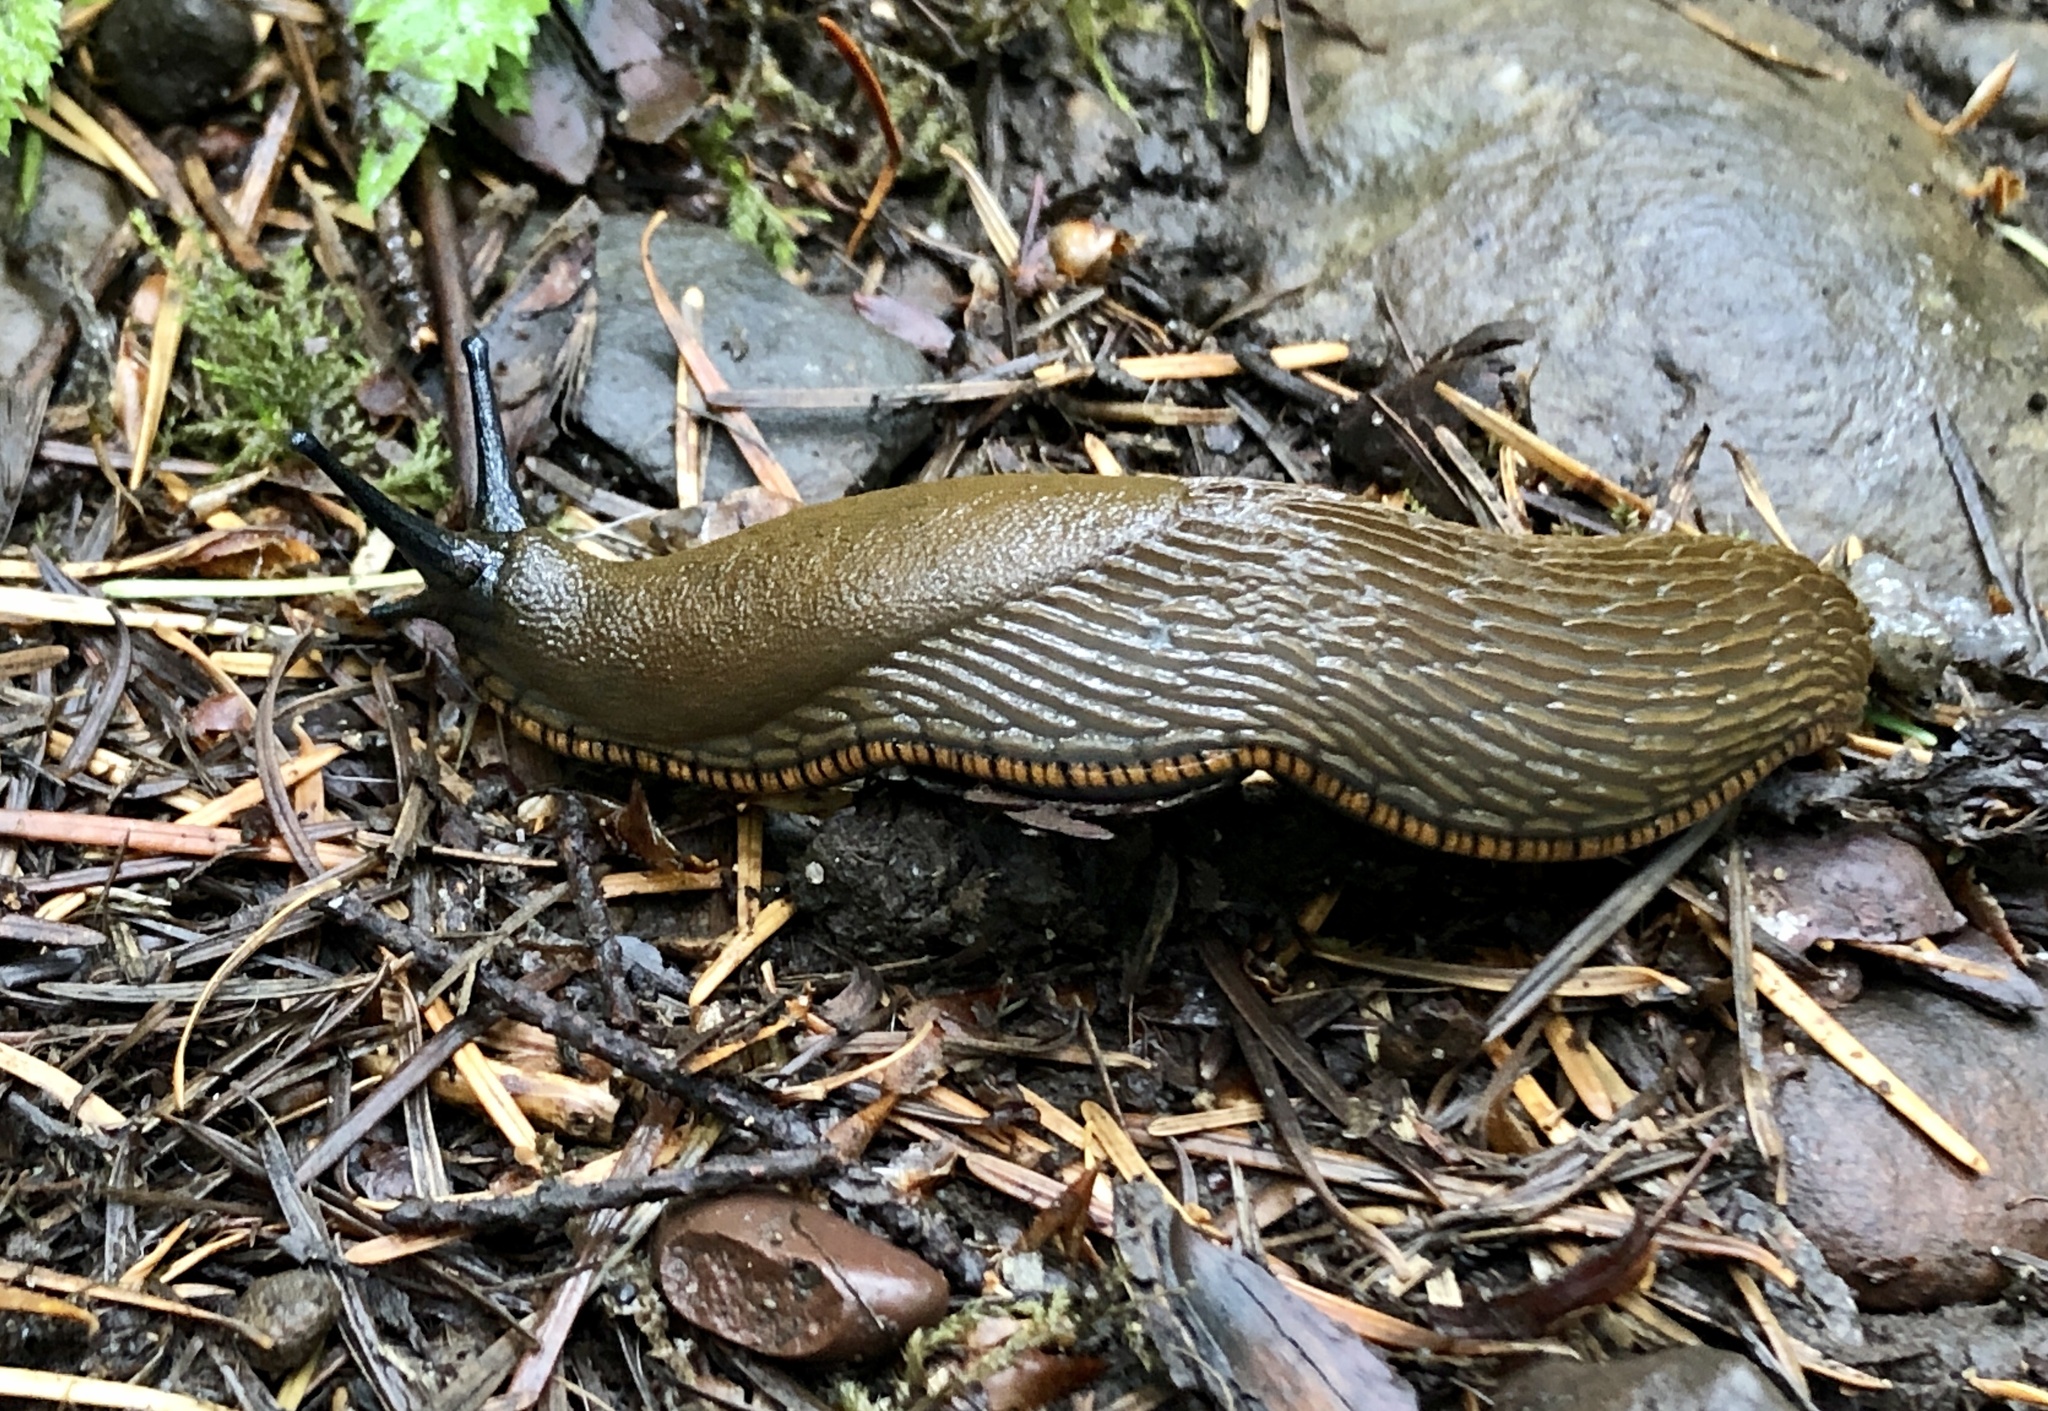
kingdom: Animalia
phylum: Mollusca
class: Gastropoda
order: Stylommatophora
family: Arionidae
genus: Arion
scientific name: Arion rufus
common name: Chocolate arion
